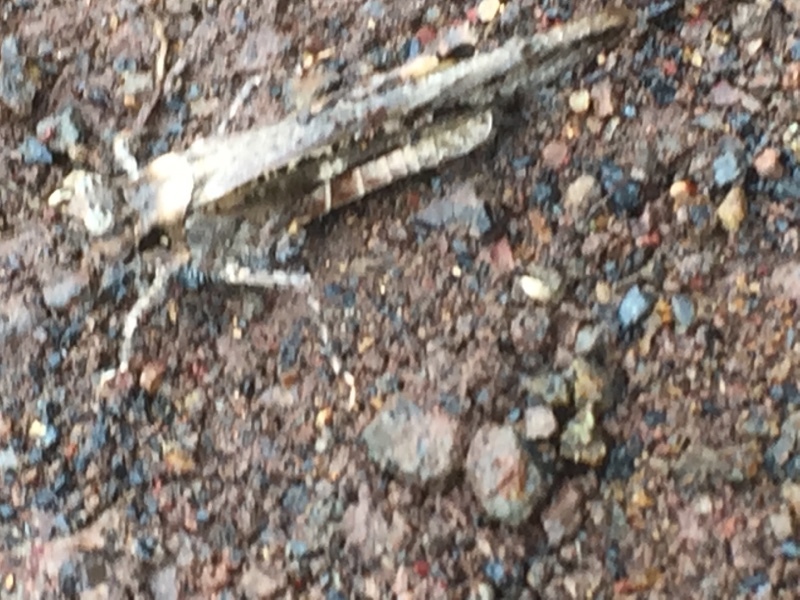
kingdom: Animalia
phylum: Arthropoda
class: Insecta
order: Orthoptera
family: Acrididae
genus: Acrotylus
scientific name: Acrotylus insubricus
